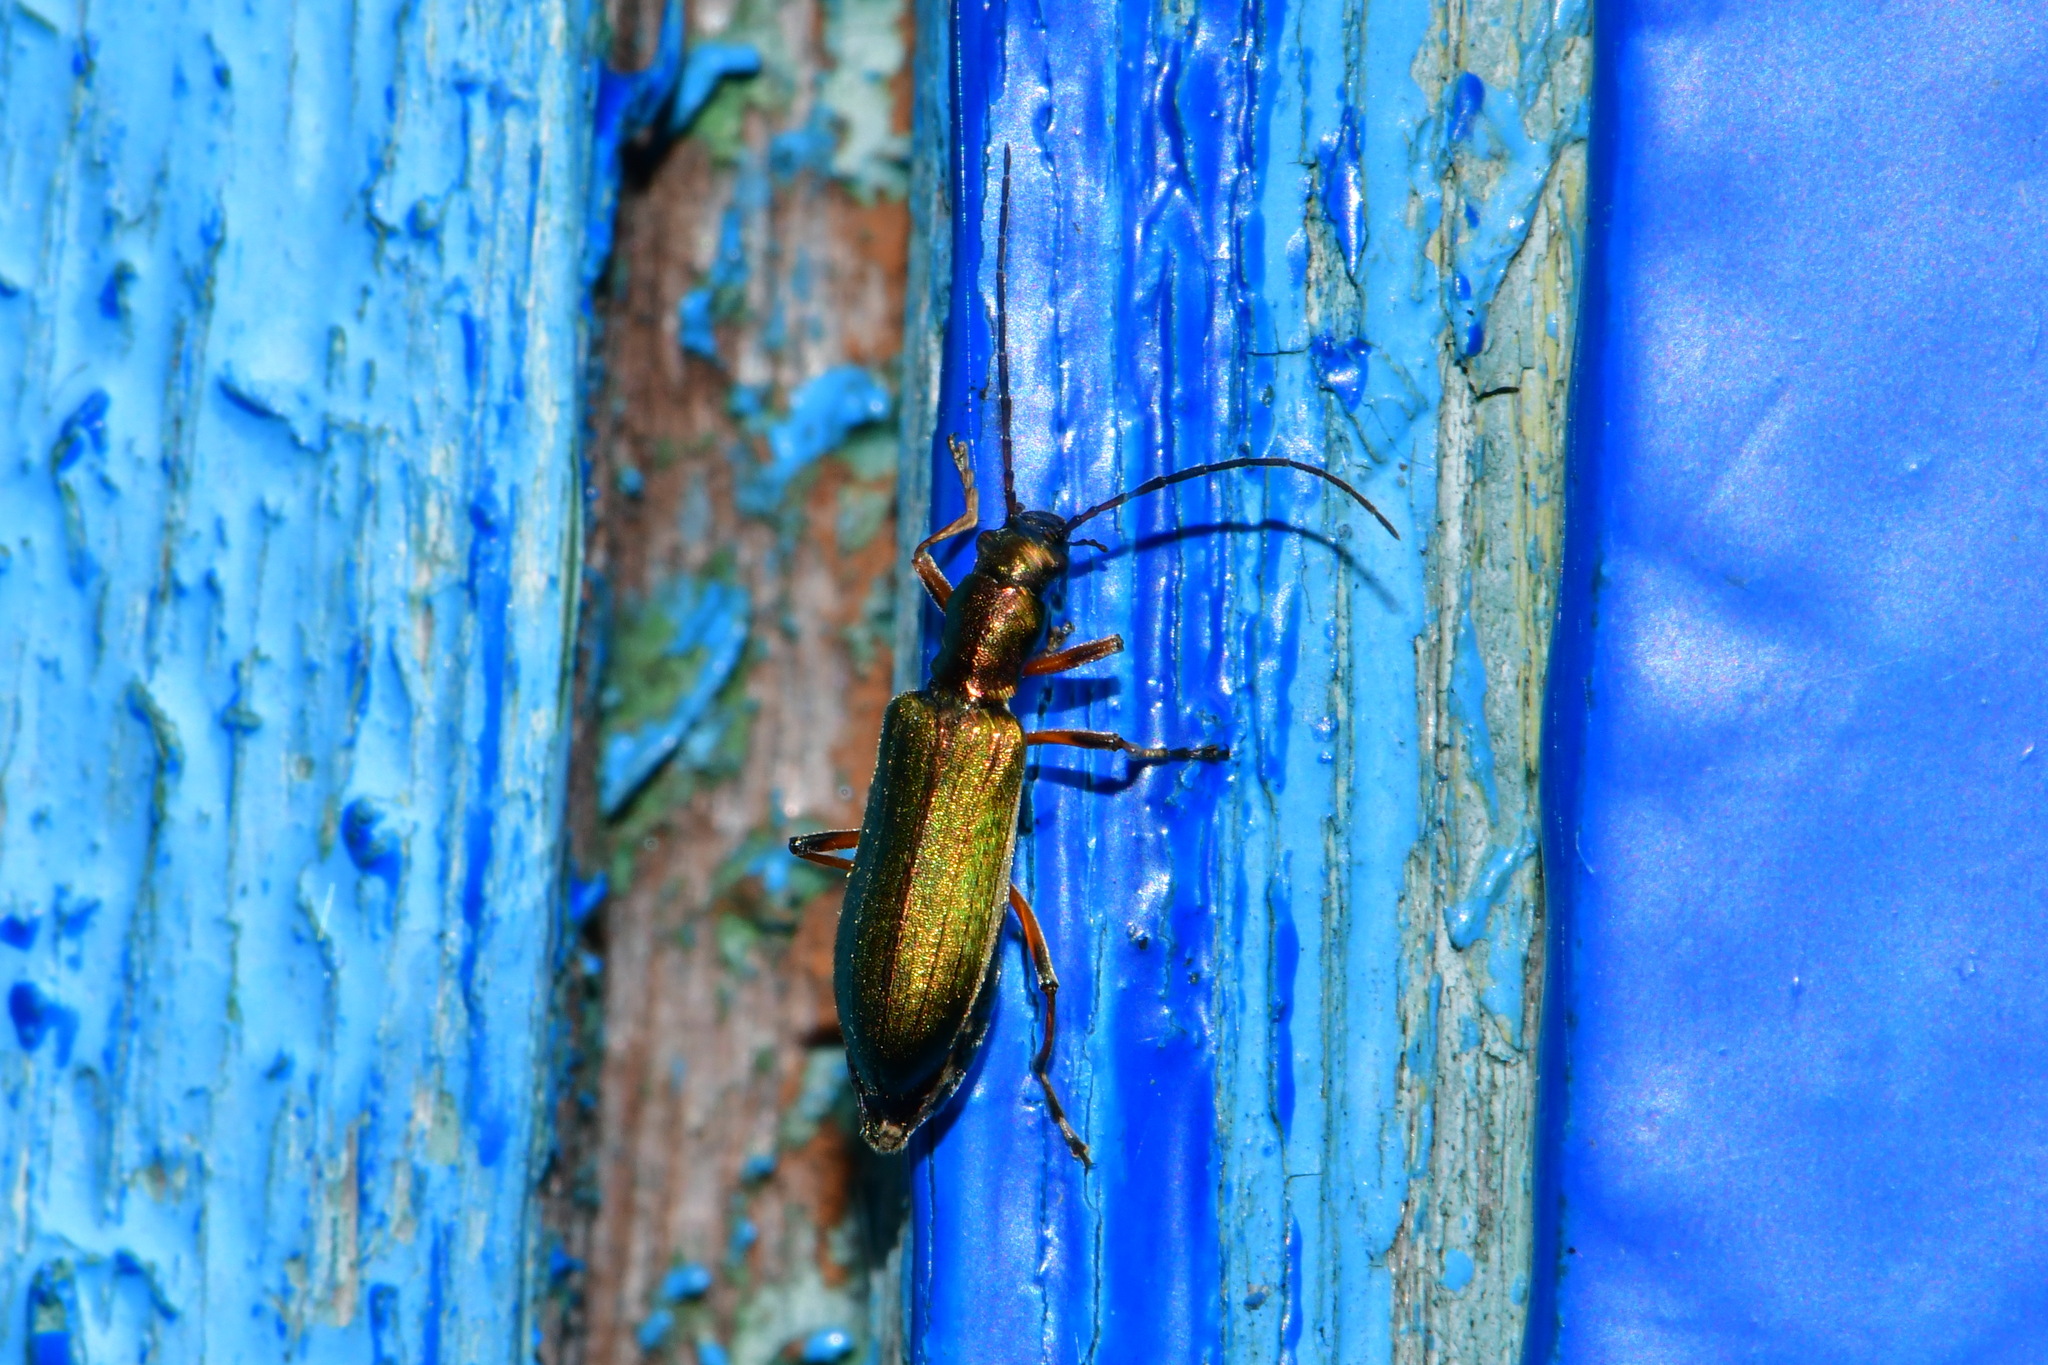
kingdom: Animalia
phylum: Arthropoda
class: Insecta
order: Coleoptera
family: Oedemeridae
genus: Chrysanthia
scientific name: Chrysanthia geniculata
